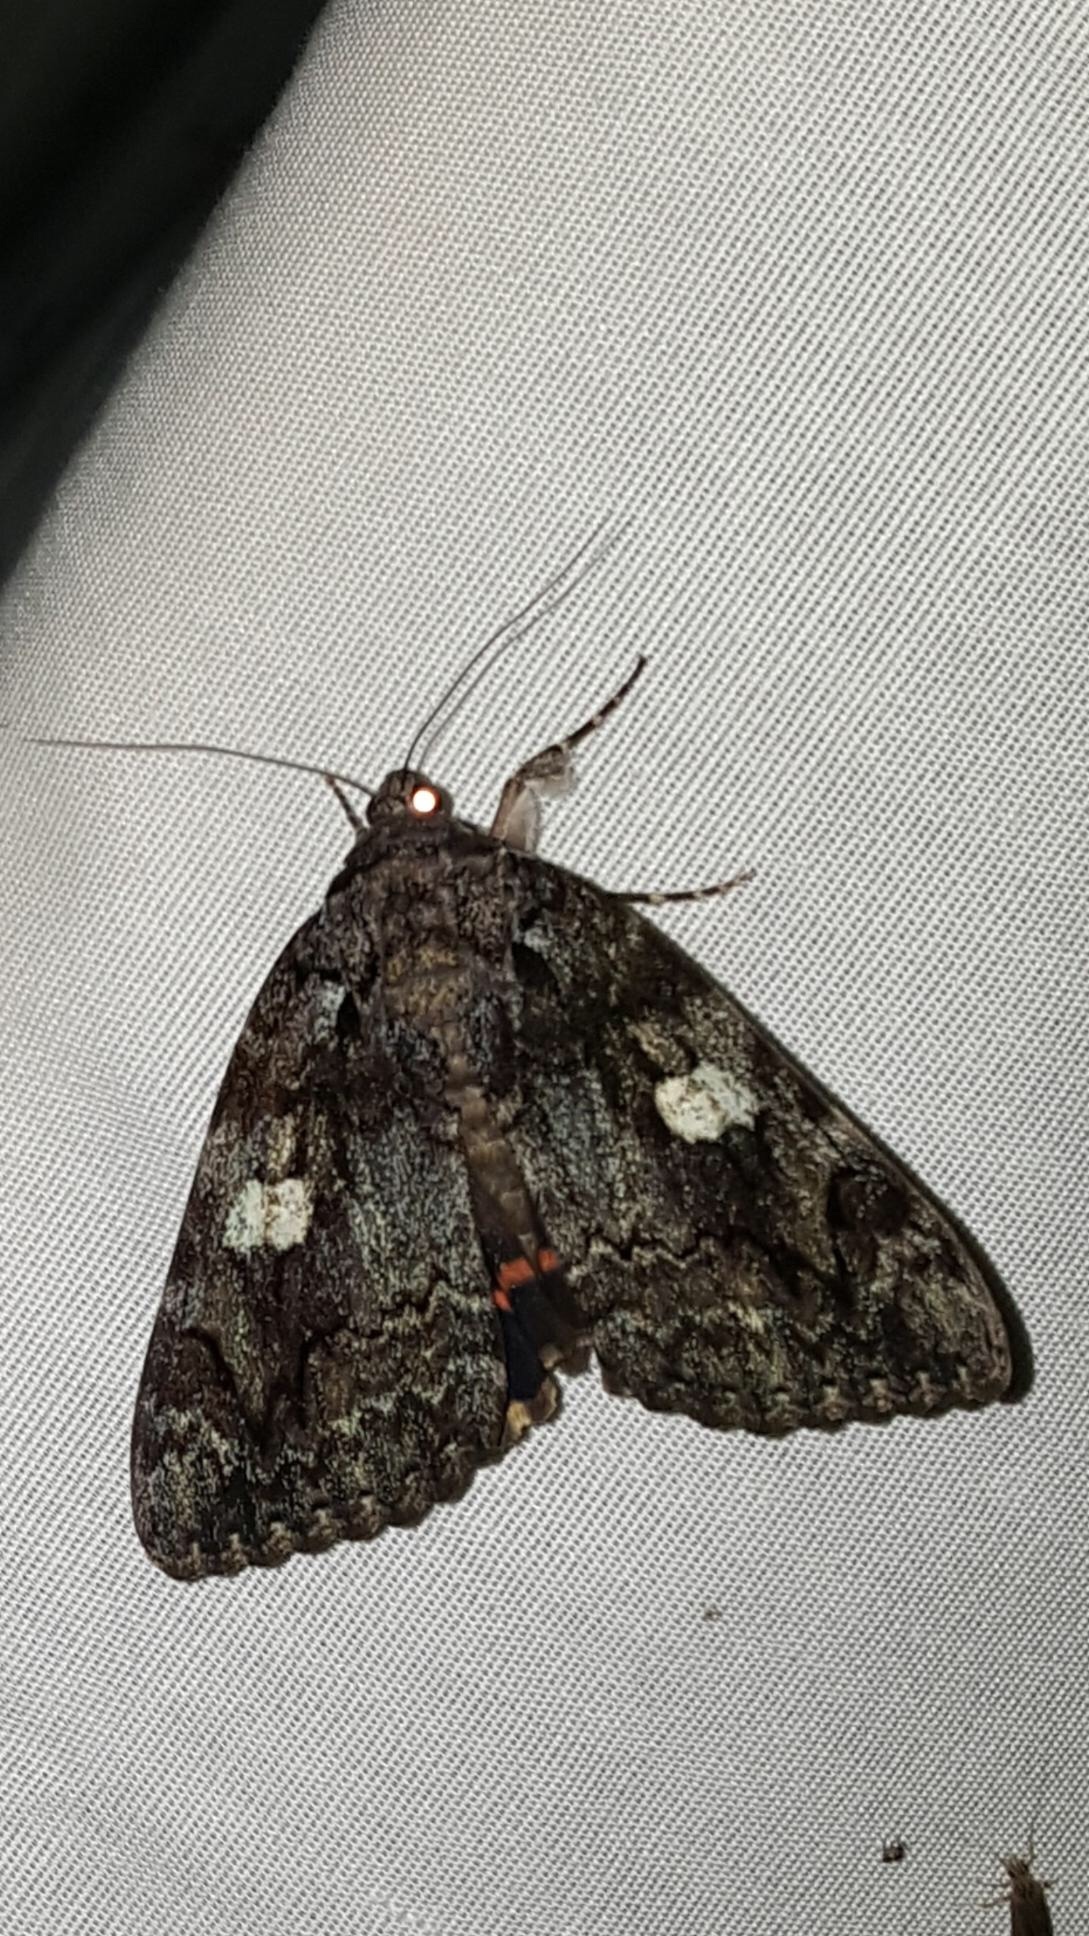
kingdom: Animalia
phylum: Arthropoda
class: Insecta
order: Lepidoptera
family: Erebidae
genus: Catocala
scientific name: Catocala ilia
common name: Ilia underwing
